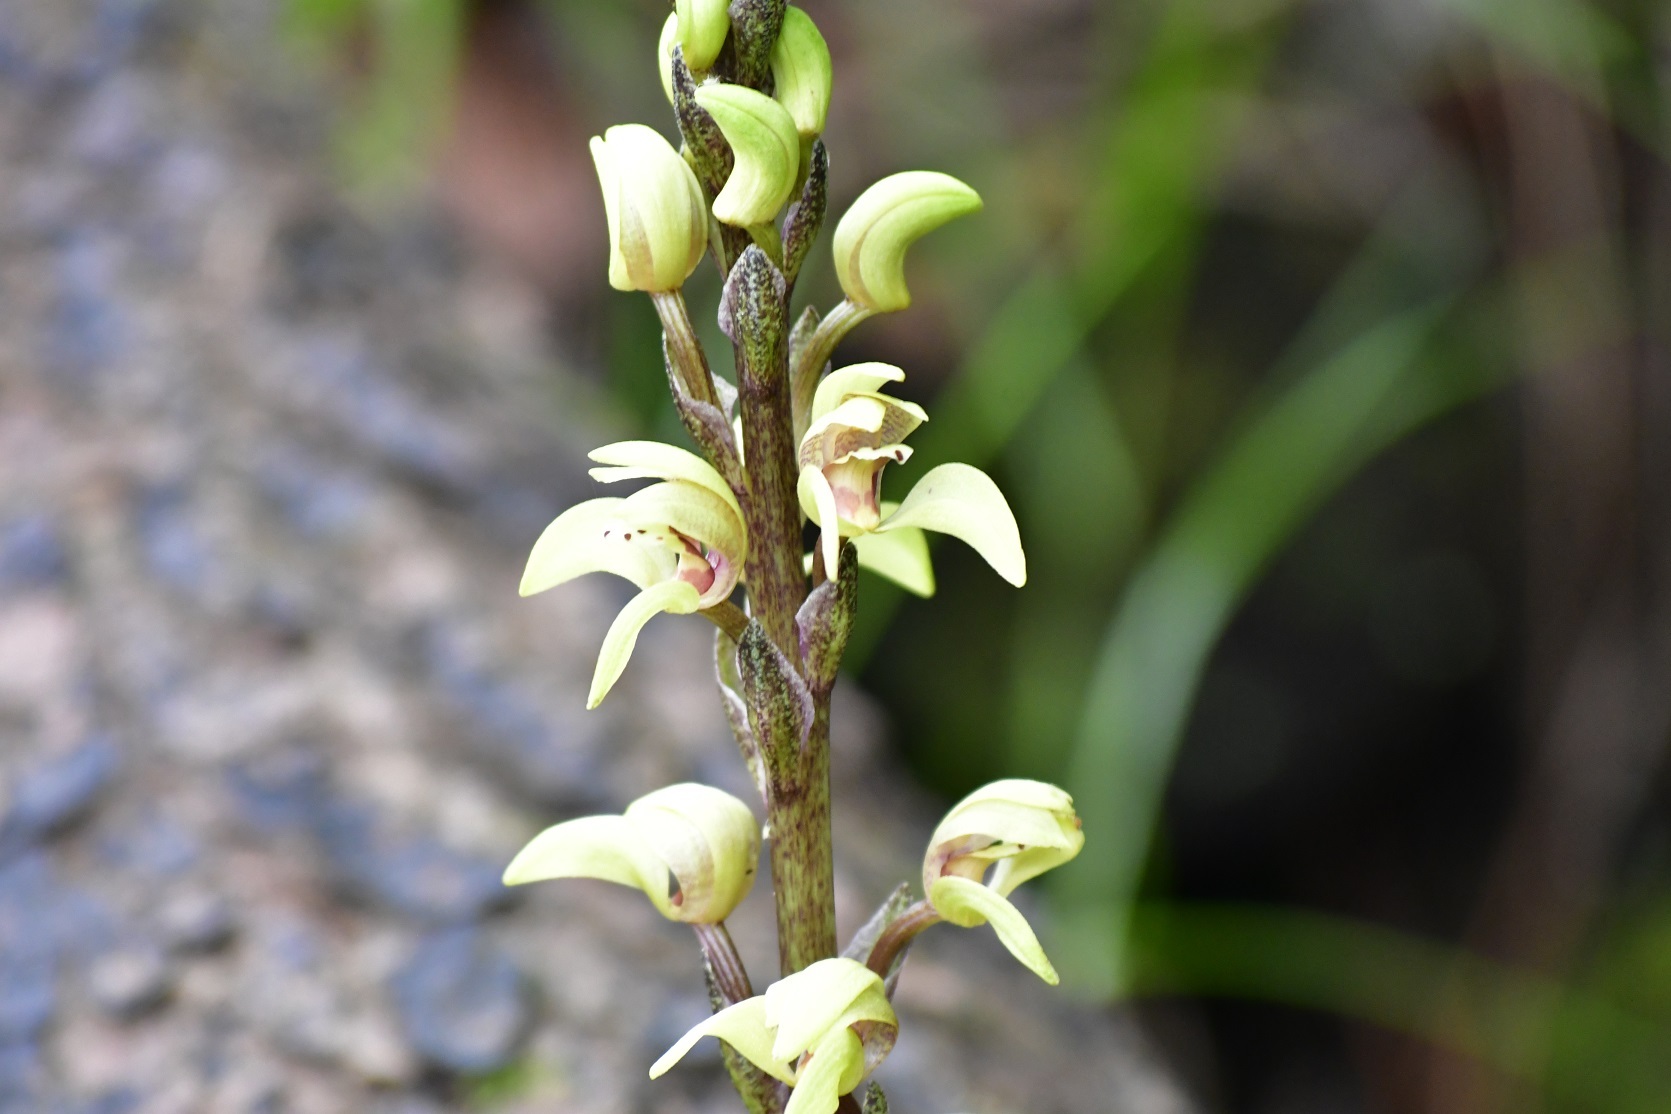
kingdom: Plantae
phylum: Tracheophyta
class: Liliopsida
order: Asparagales
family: Orchidaceae
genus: Govenia
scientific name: Govenia superba
